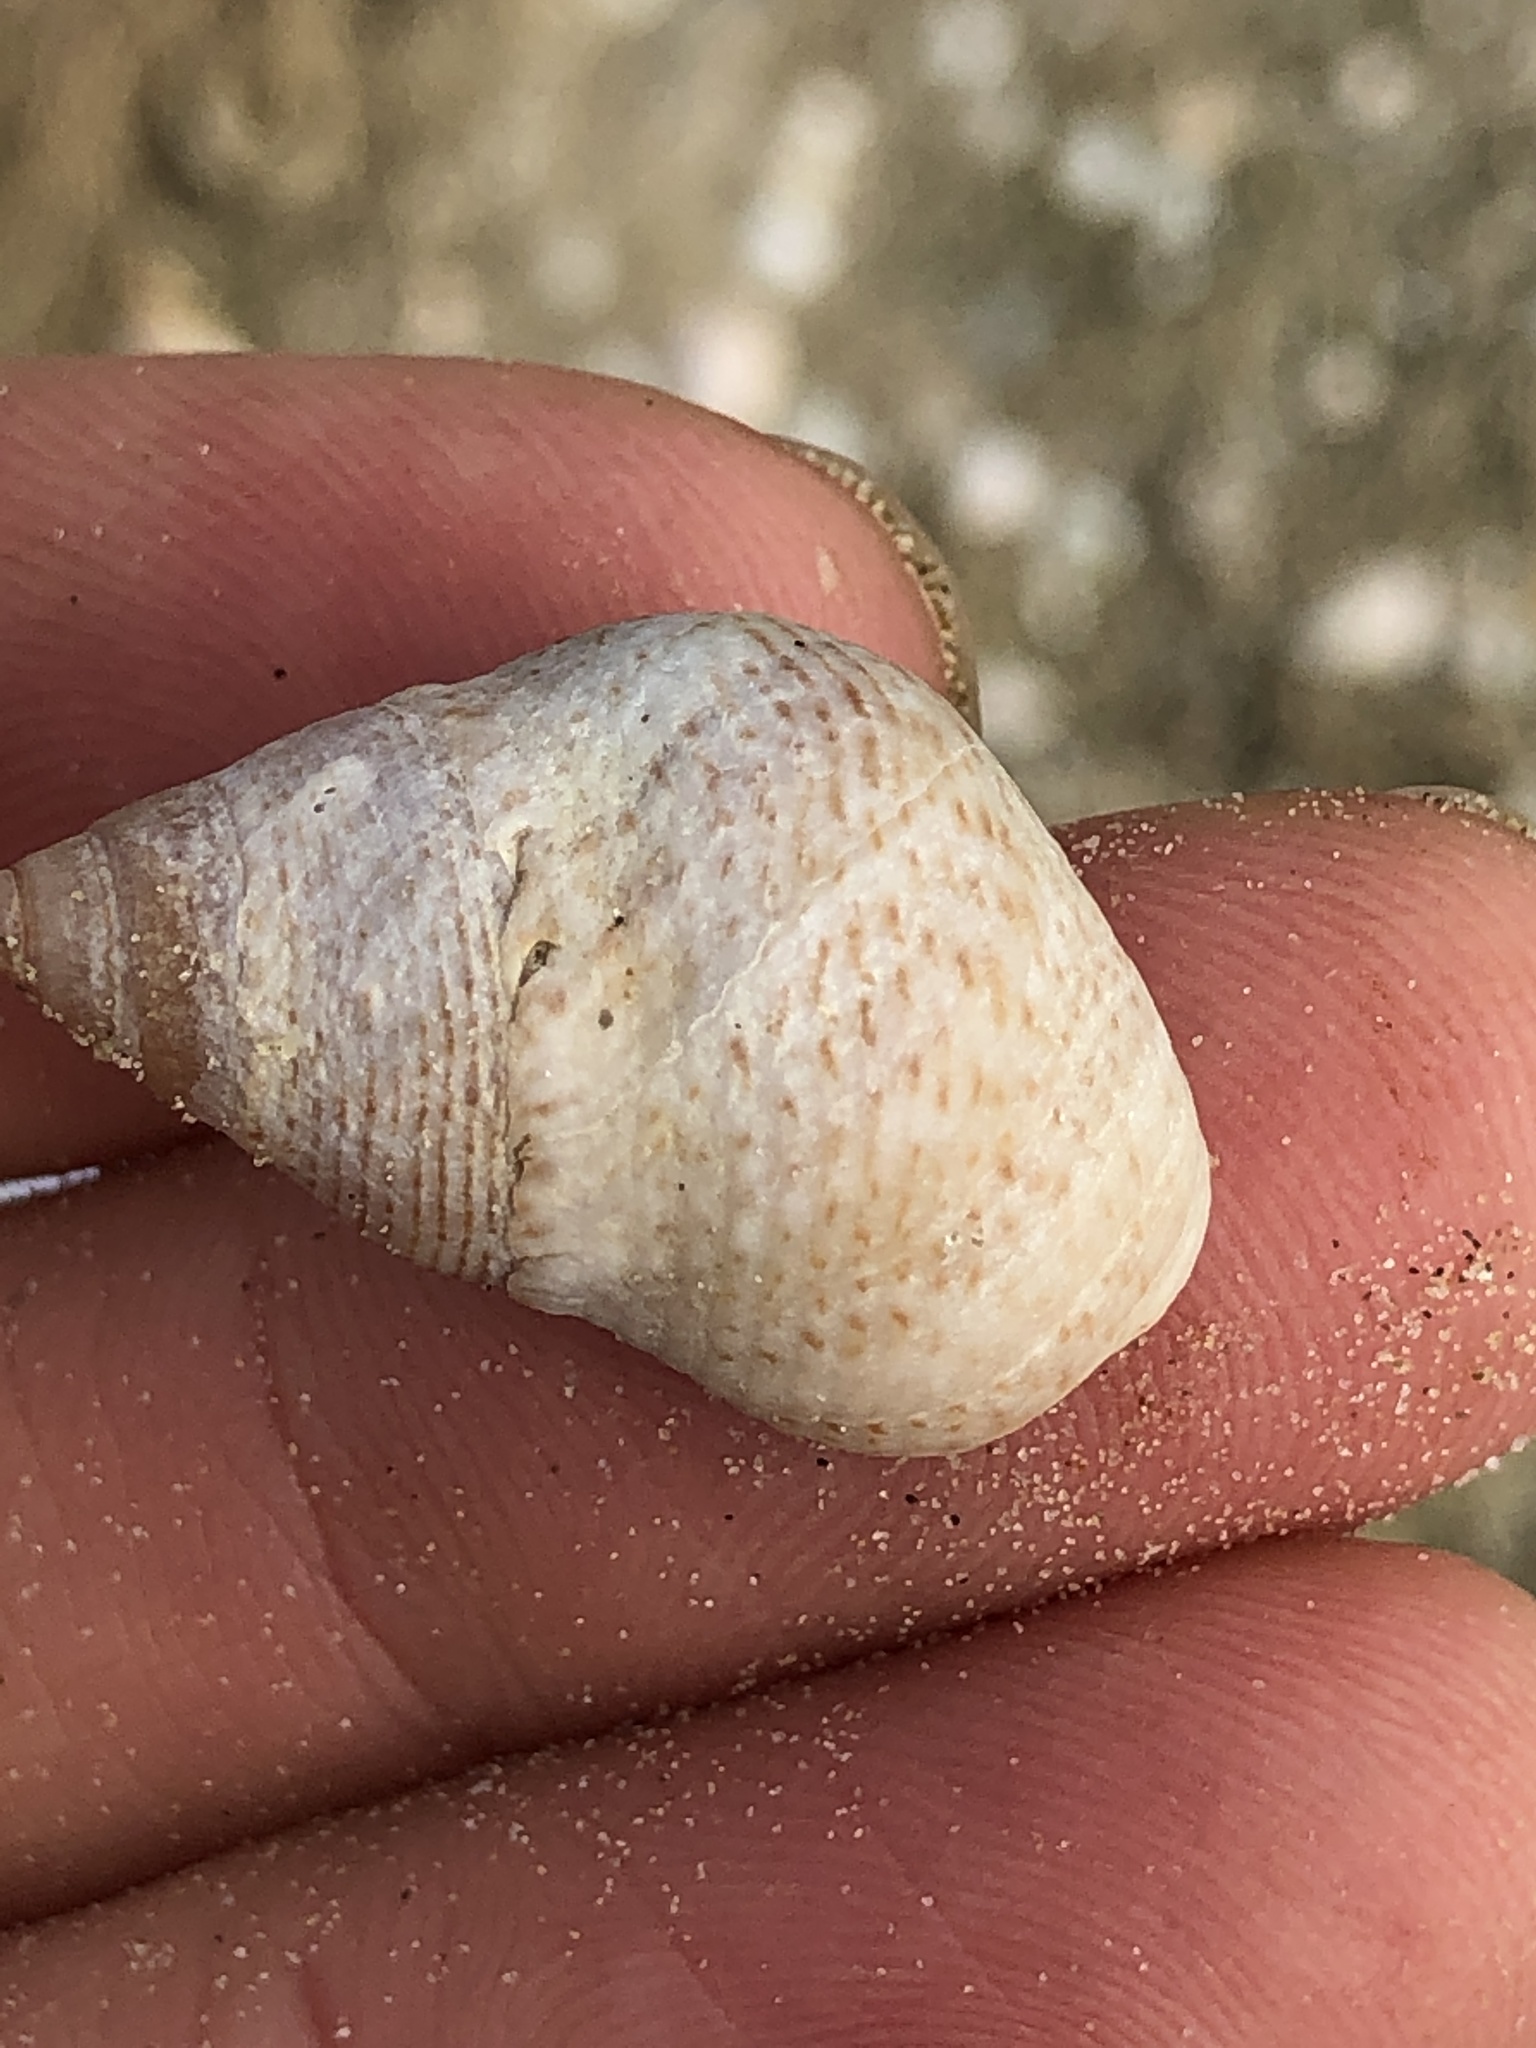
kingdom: Animalia
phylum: Mollusca
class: Gastropoda
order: Littorinimorpha
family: Littorinidae
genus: Littoraria
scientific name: Littoraria irrorata
